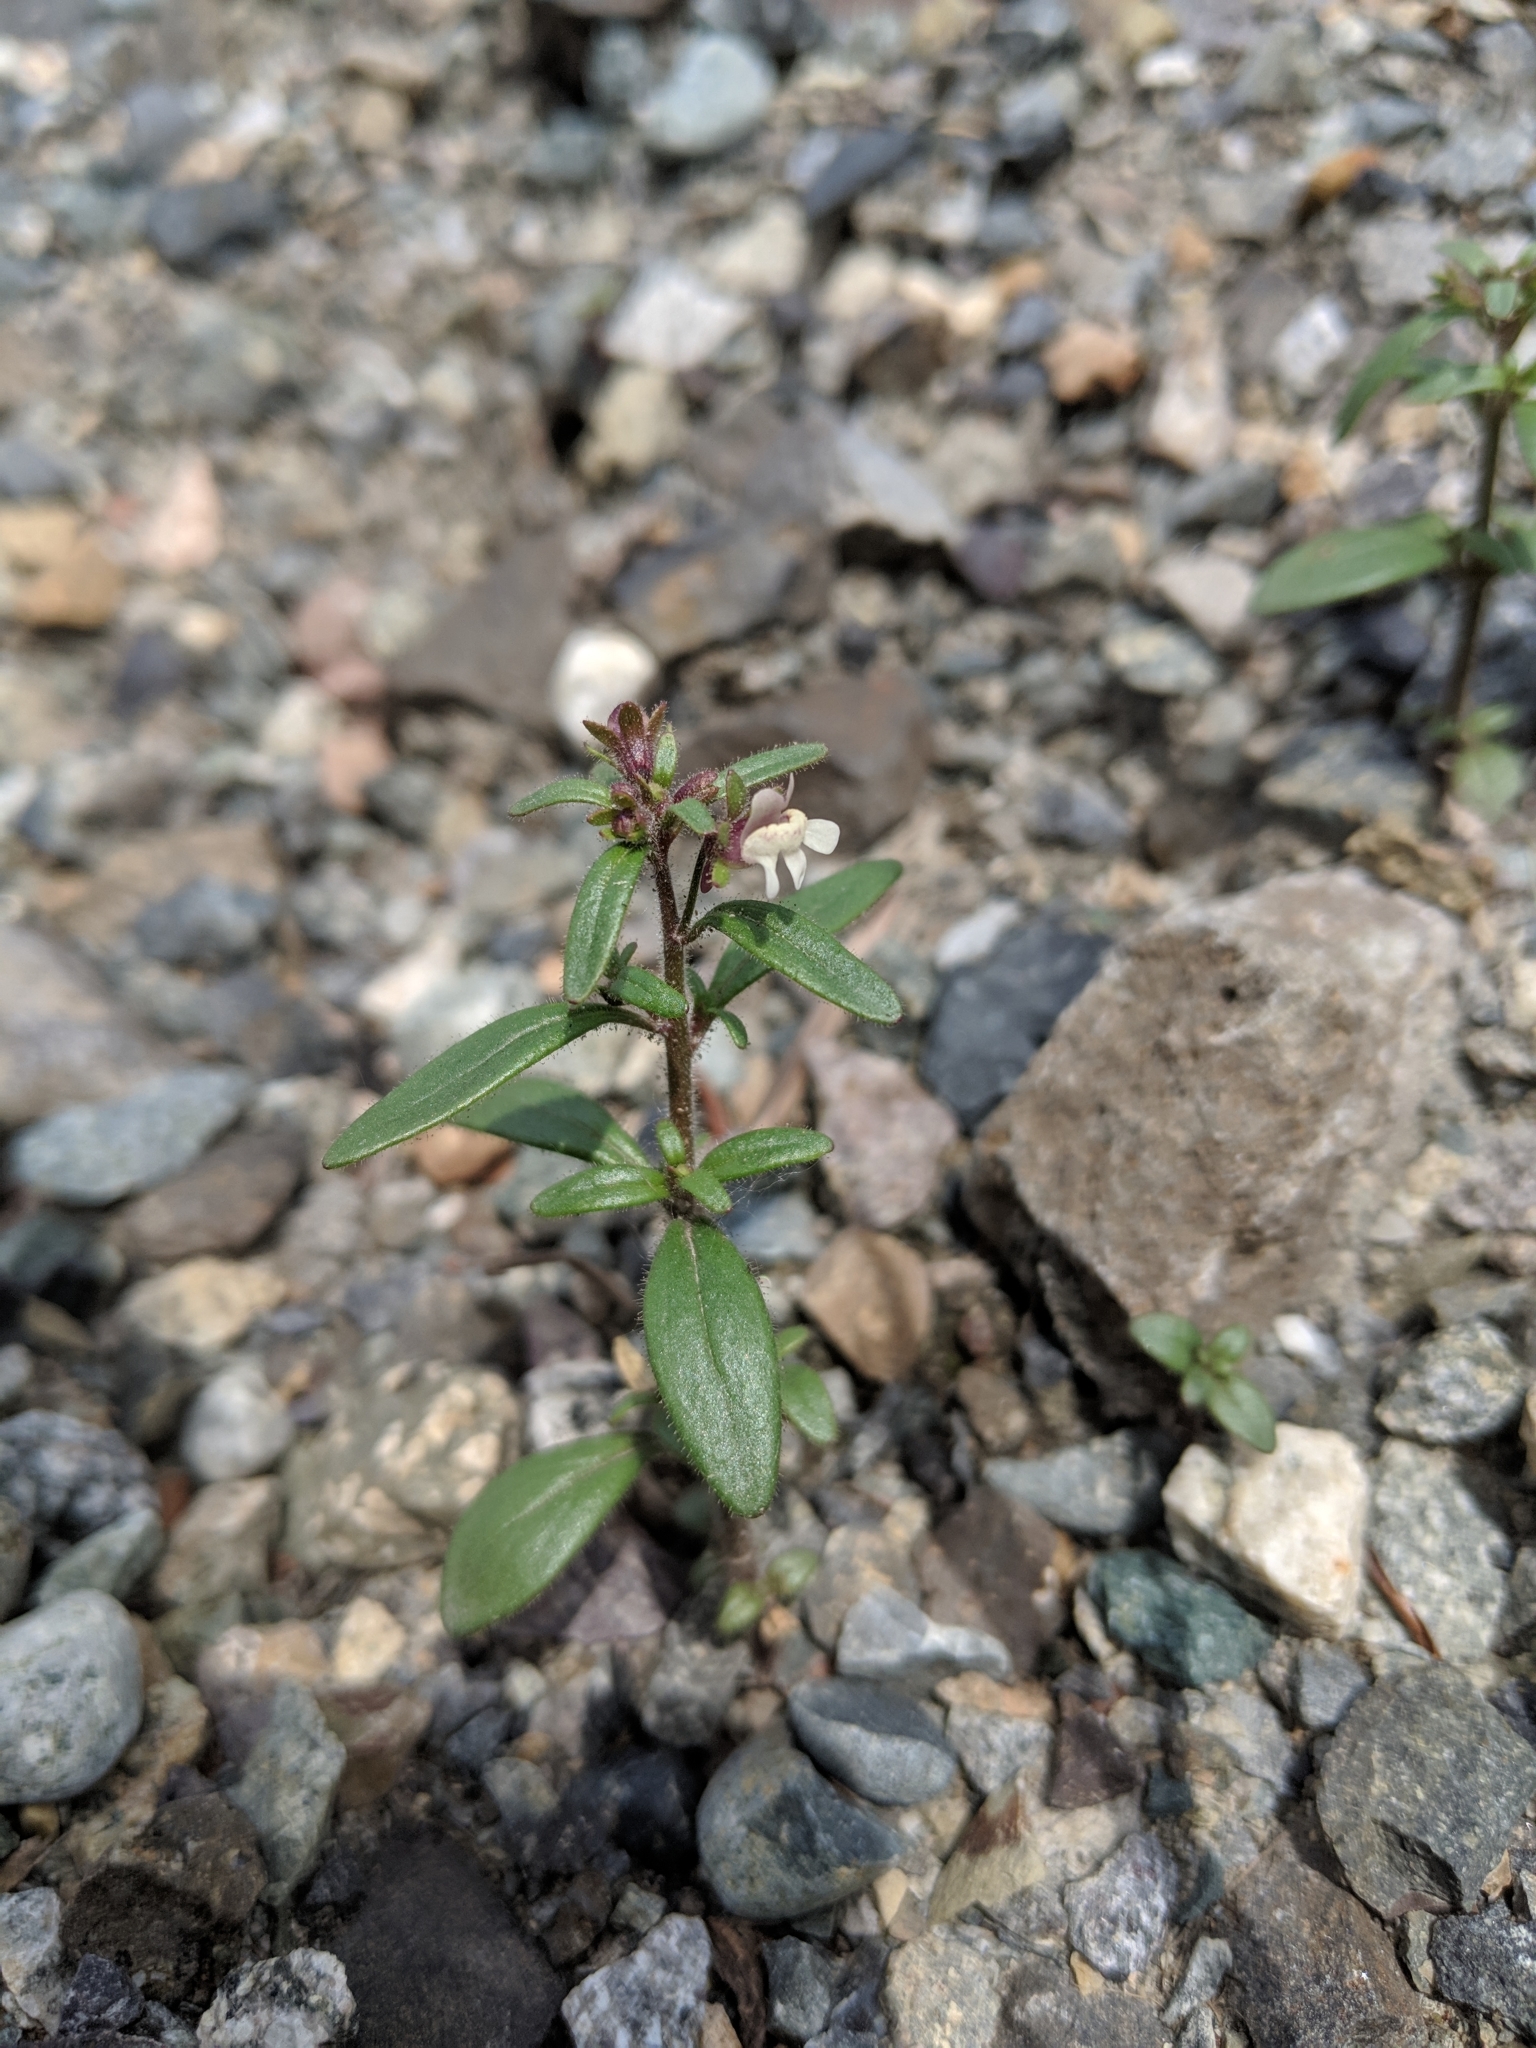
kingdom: Plantae
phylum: Tracheophyta
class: Magnoliopsida
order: Lamiales
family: Plantaginaceae
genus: Chaenorhinum
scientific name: Chaenorhinum minus
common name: Dwarf snapdragon
